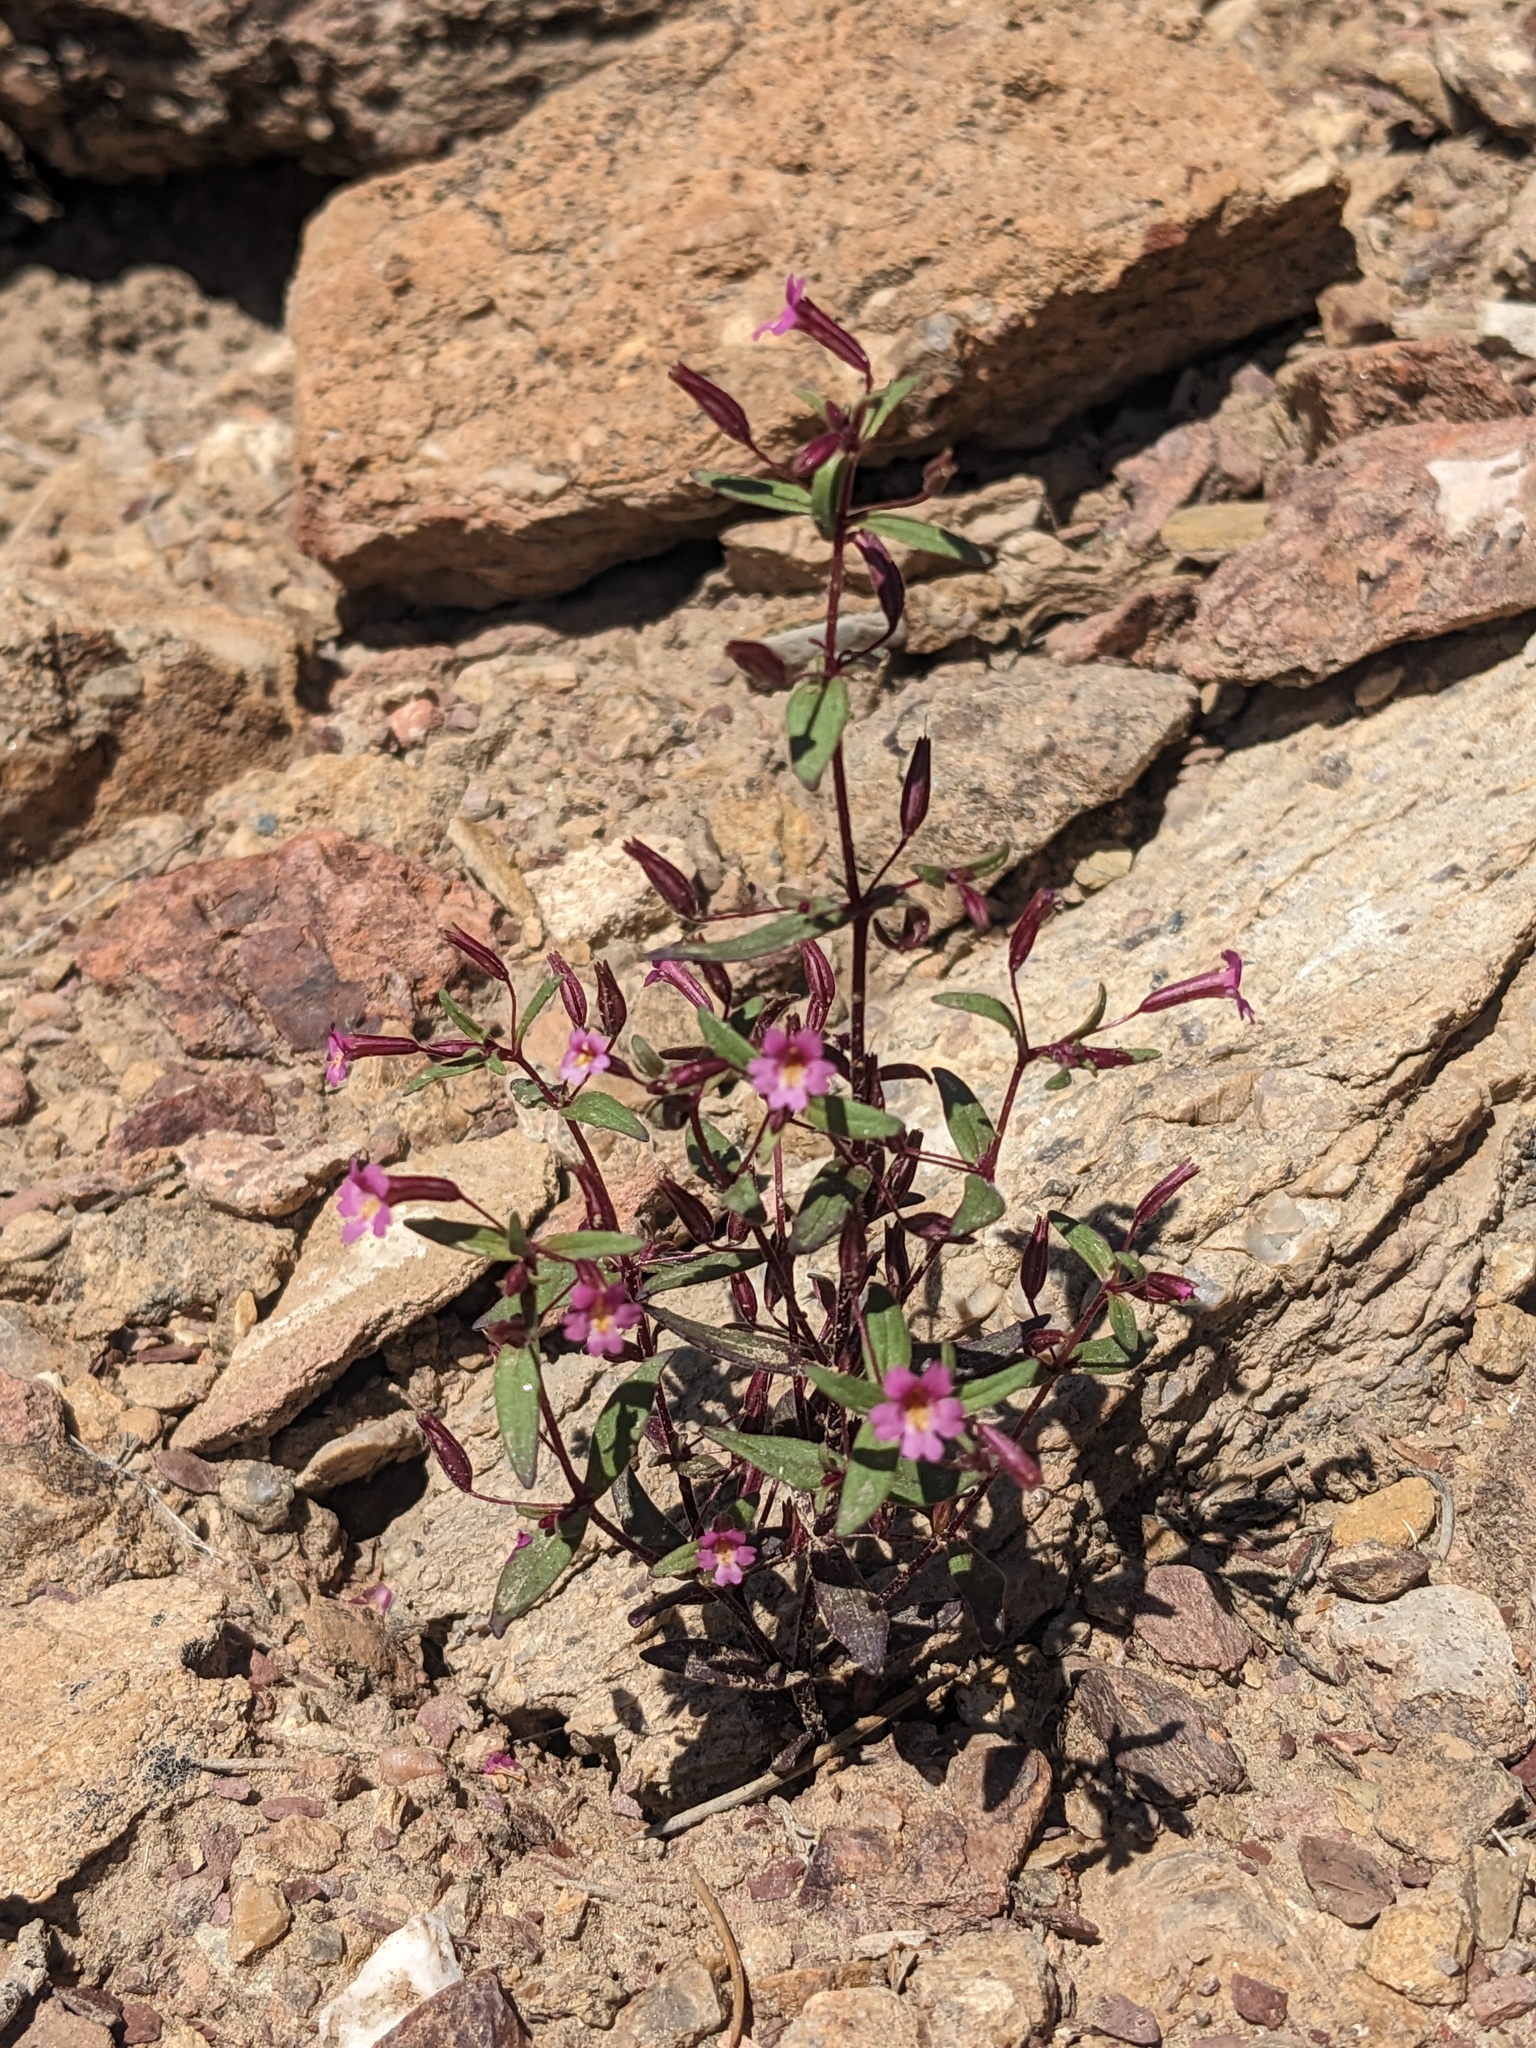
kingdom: Plantae
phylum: Tracheophyta
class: Magnoliopsida
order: Lamiales
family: Phrymaceae
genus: Erythranthe
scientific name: Erythranthe rubella
